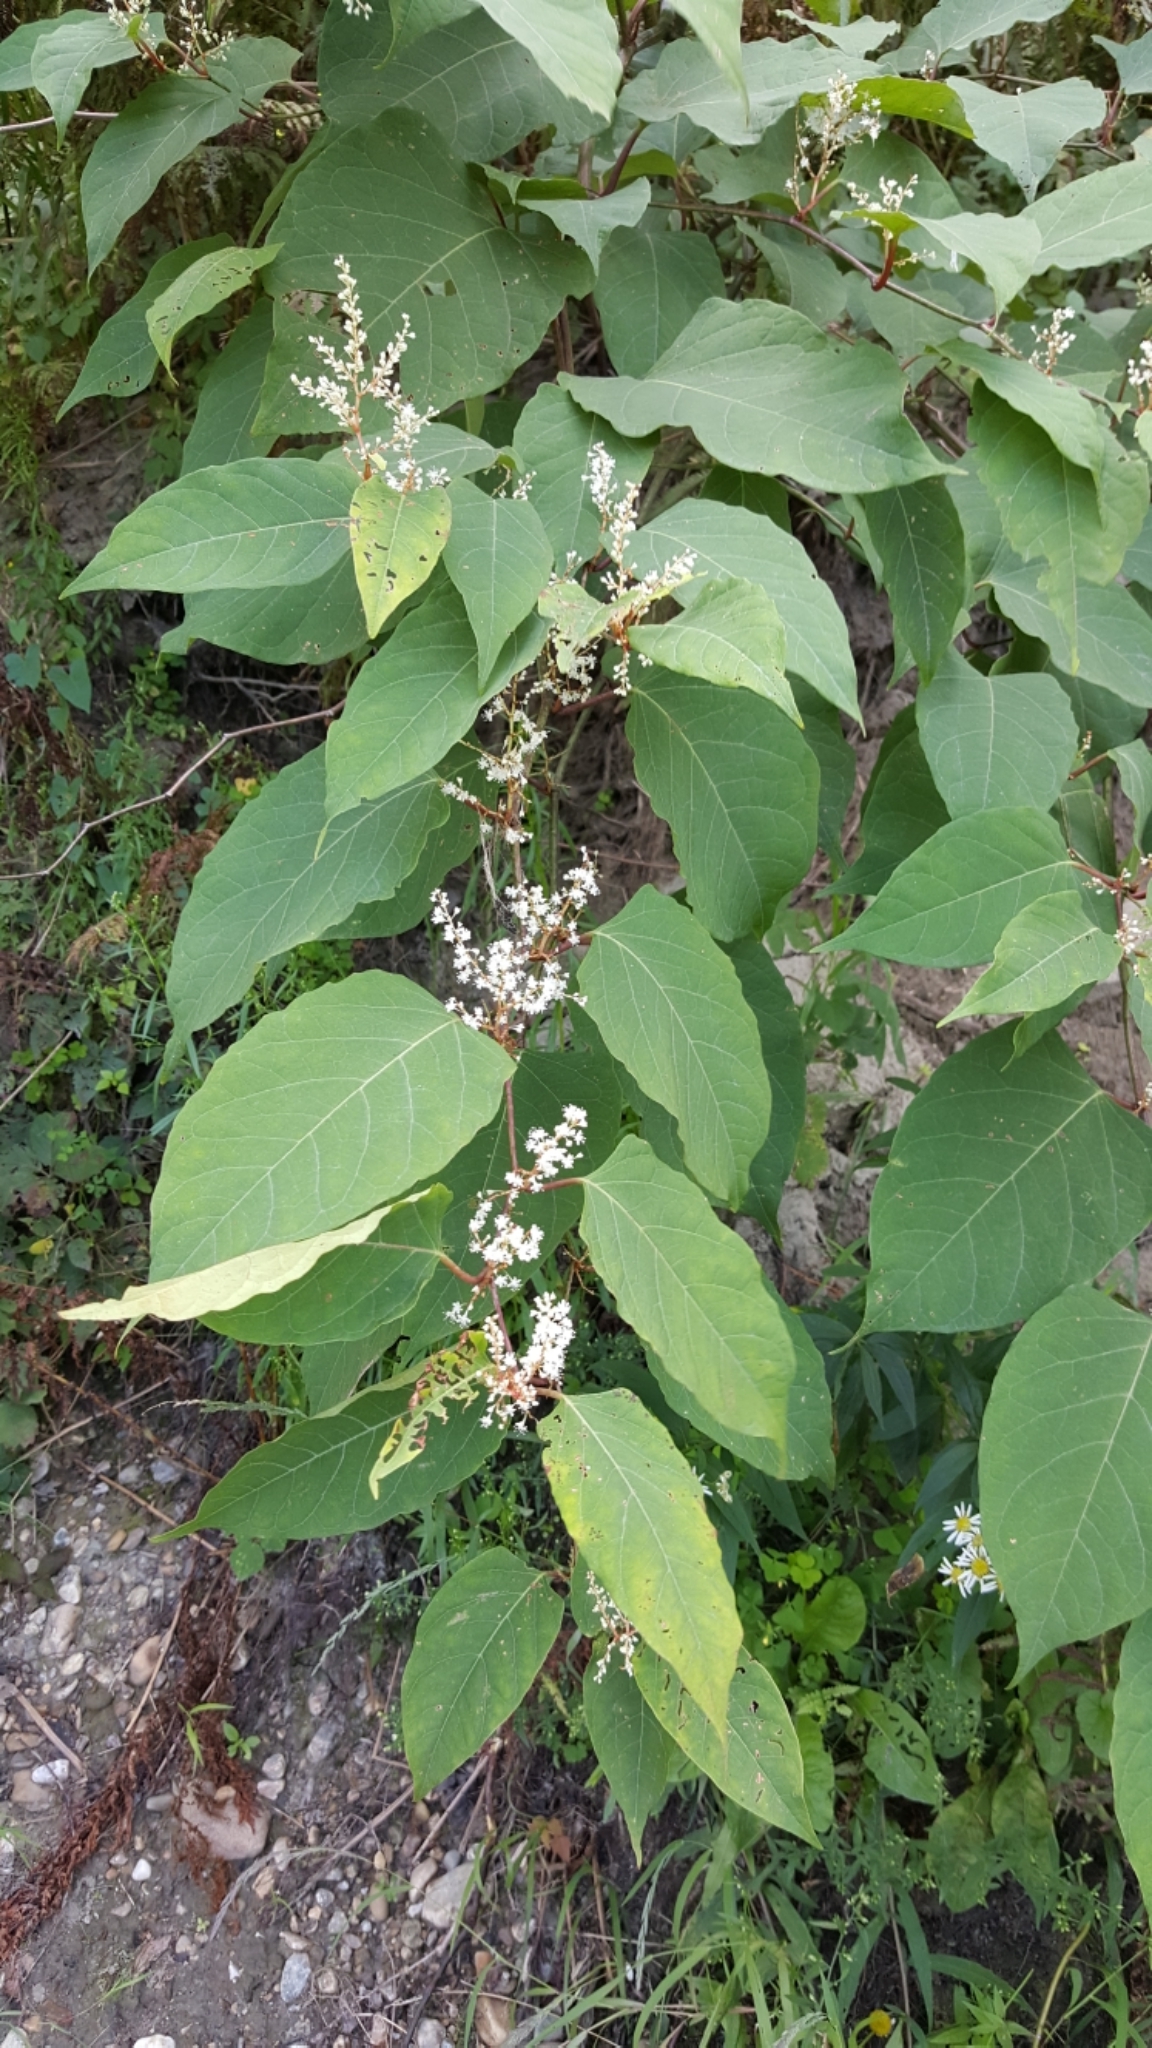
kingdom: Plantae
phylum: Tracheophyta
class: Magnoliopsida
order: Caryophyllales
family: Polygonaceae
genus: Reynoutria
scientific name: Reynoutria japonica
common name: Japanese knotweed
